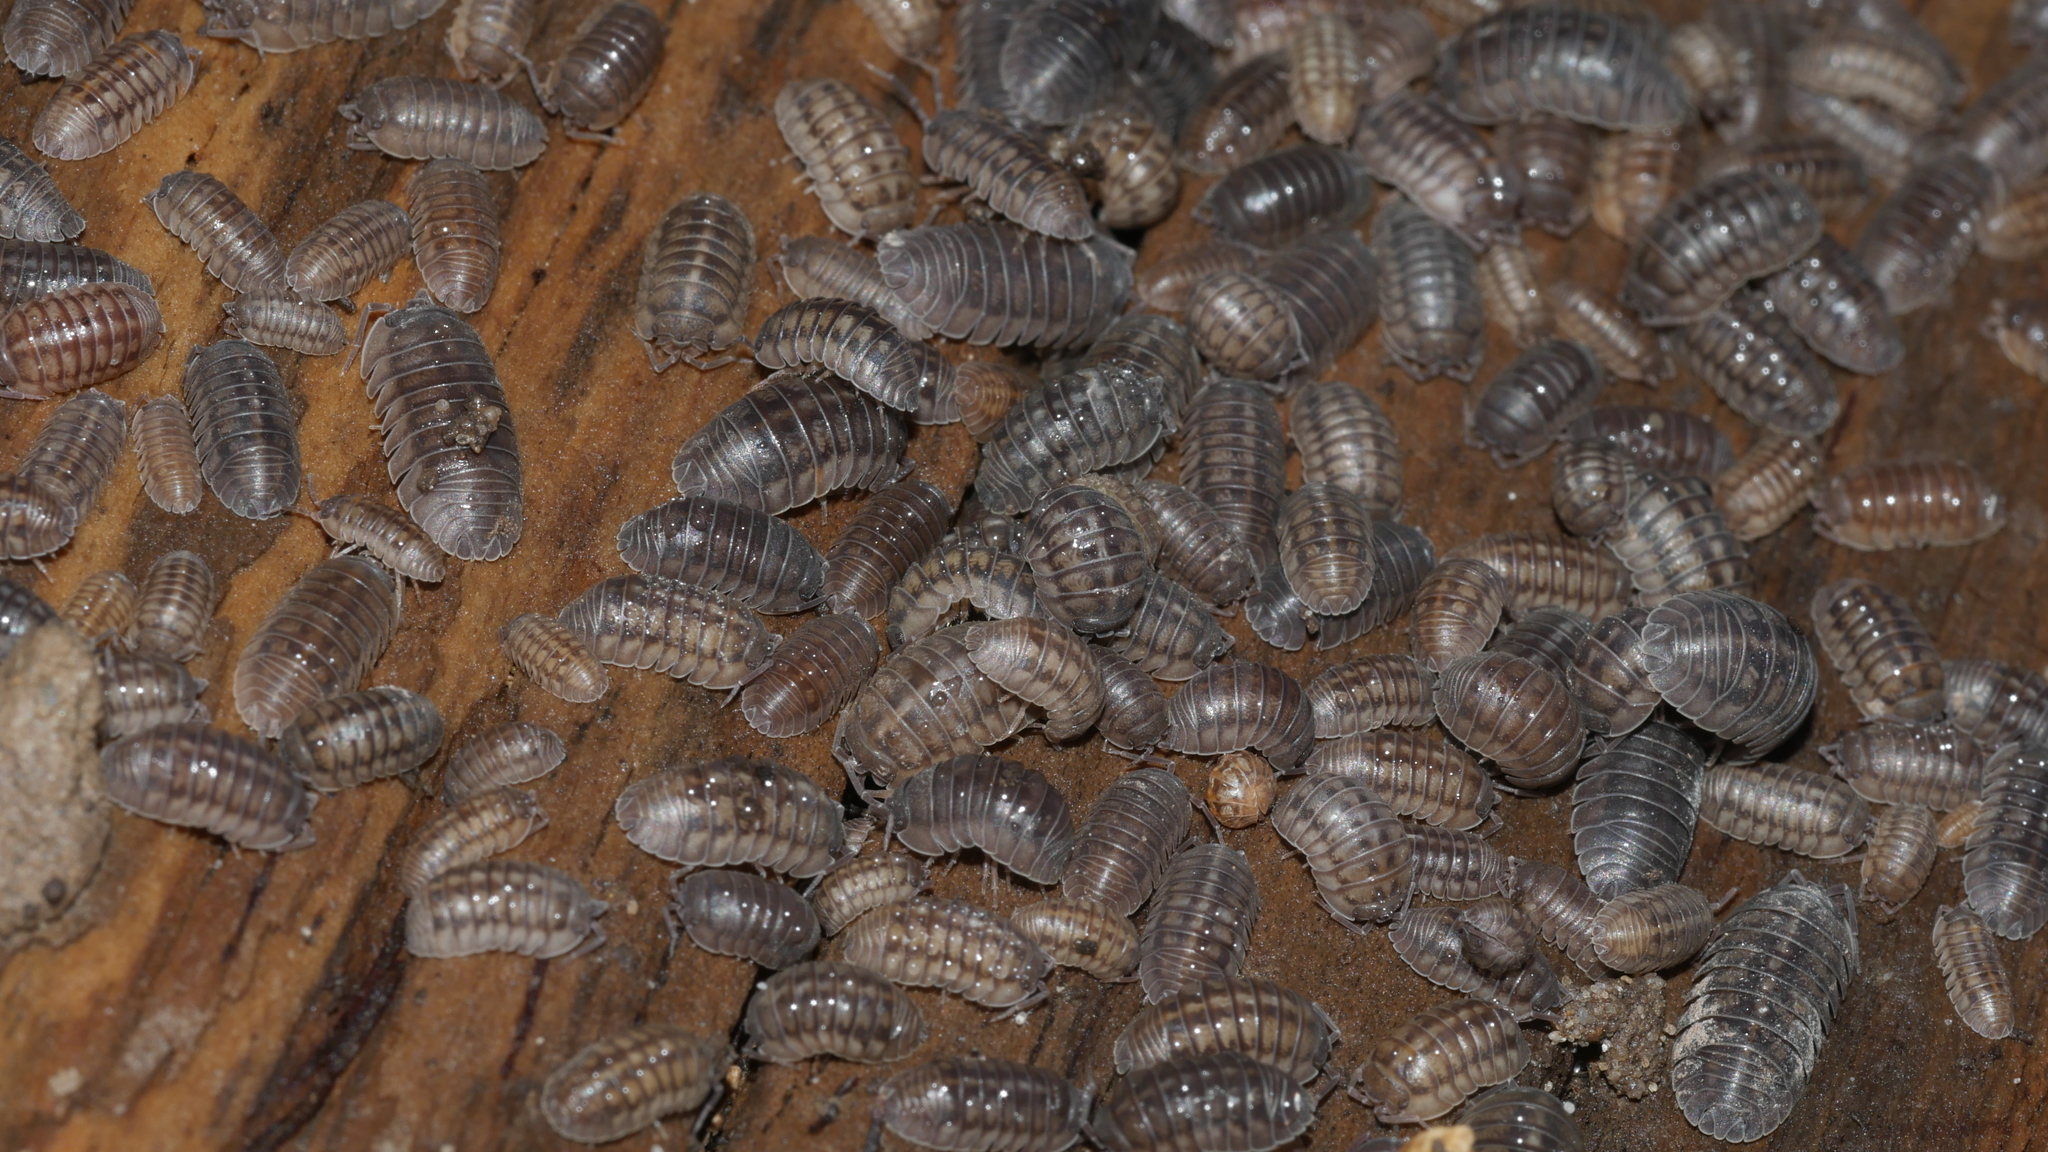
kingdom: Animalia
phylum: Arthropoda
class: Malacostraca
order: Isopoda
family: Armadillidiidae
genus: Armadillidium
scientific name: Armadillidium nasatum
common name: Isopod
